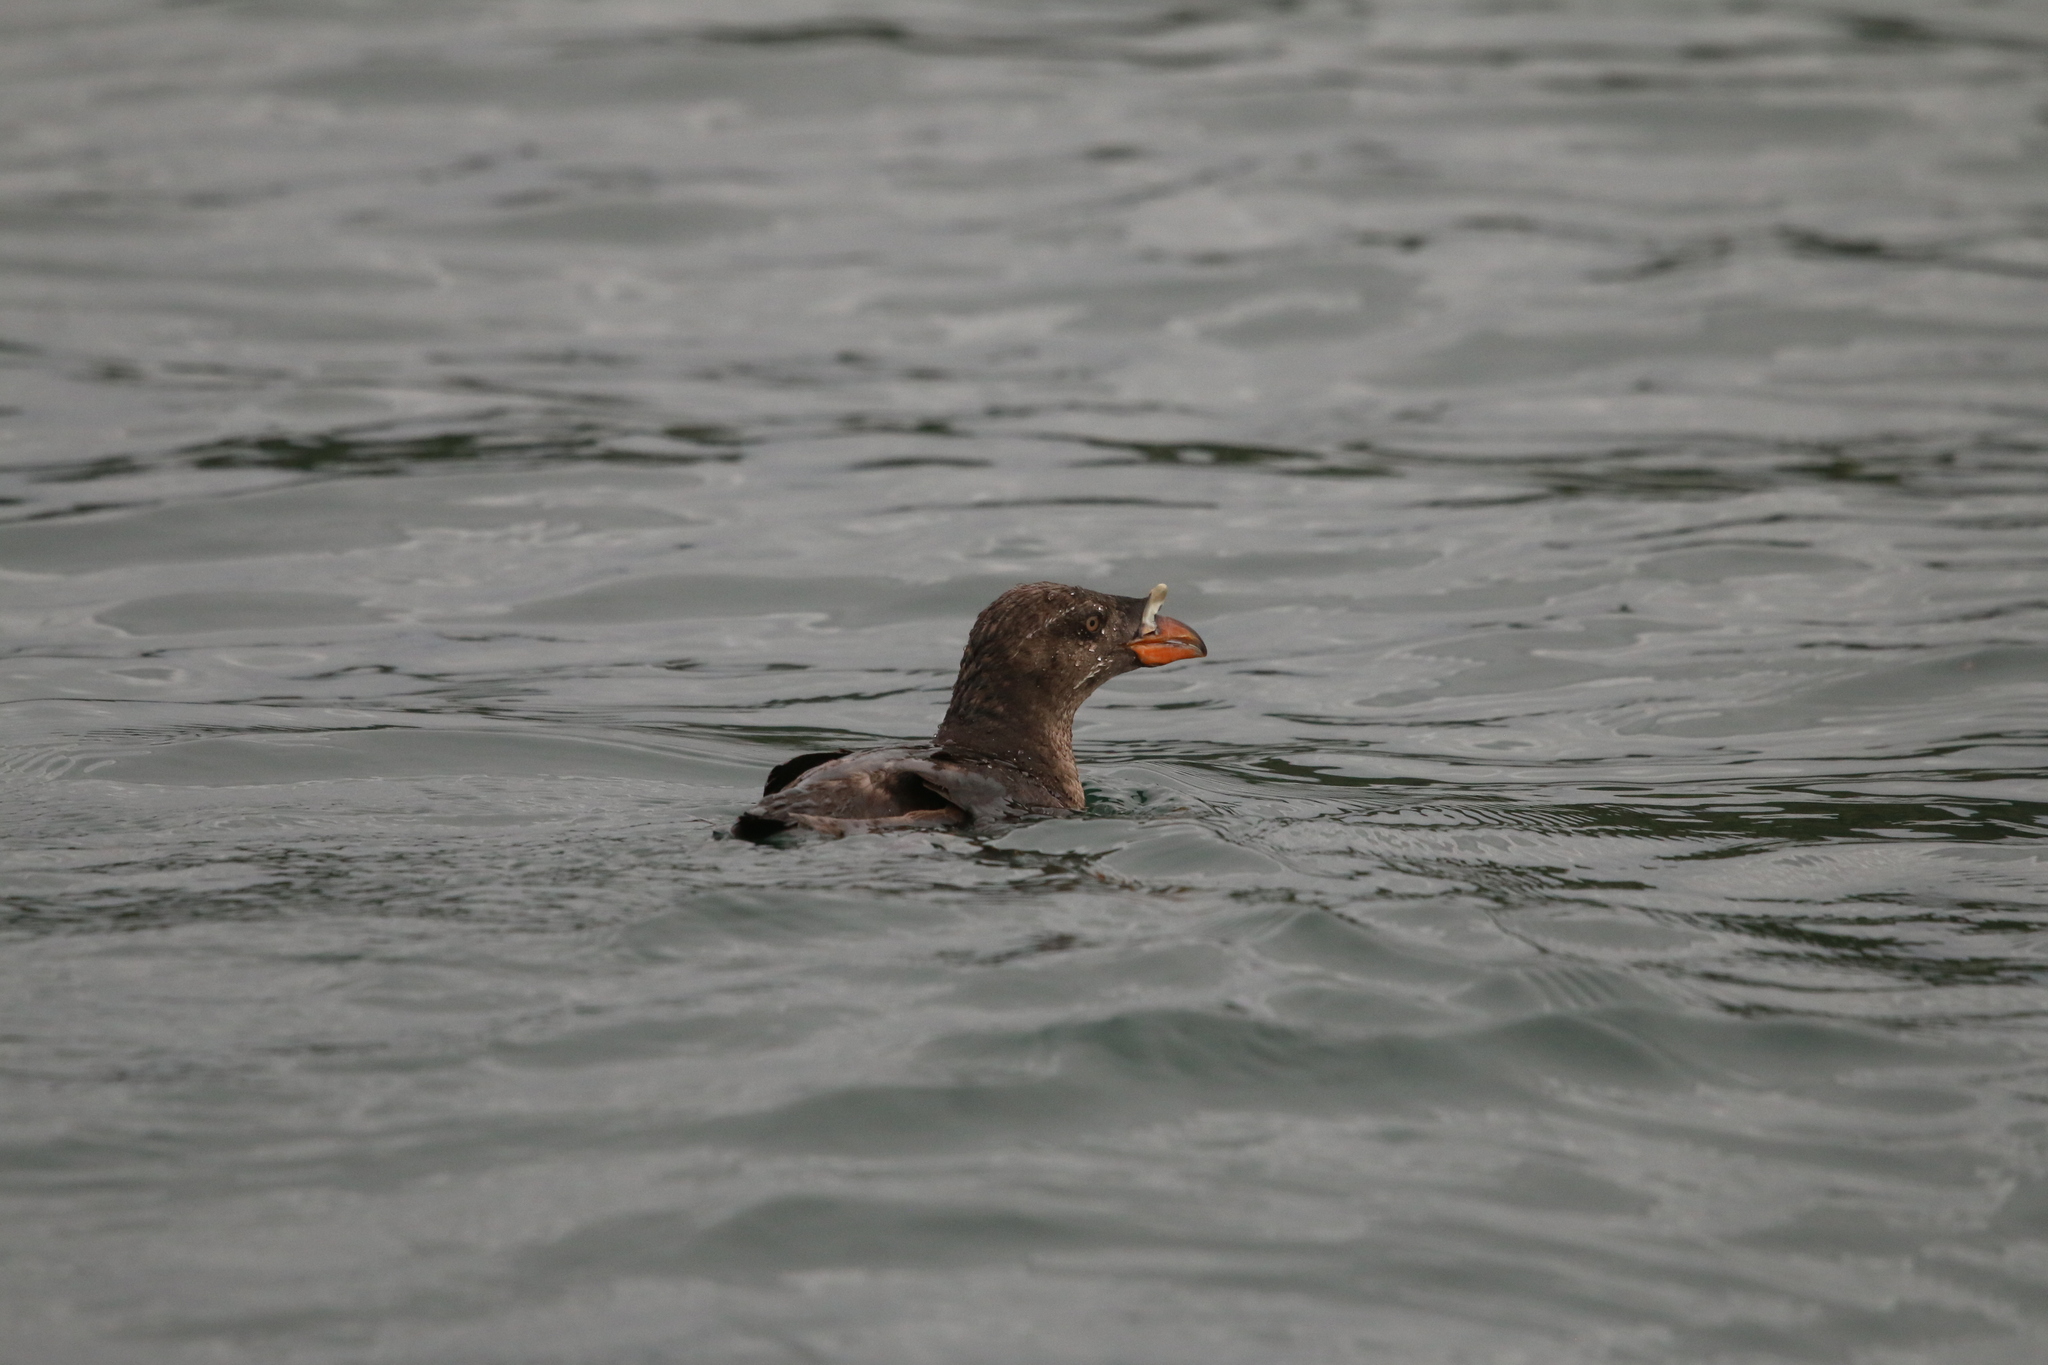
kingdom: Animalia
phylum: Chordata
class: Aves
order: Charadriiformes
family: Alcidae
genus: Cerorhinca
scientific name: Cerorhinca monocerata
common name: Rhinoceros auklet
